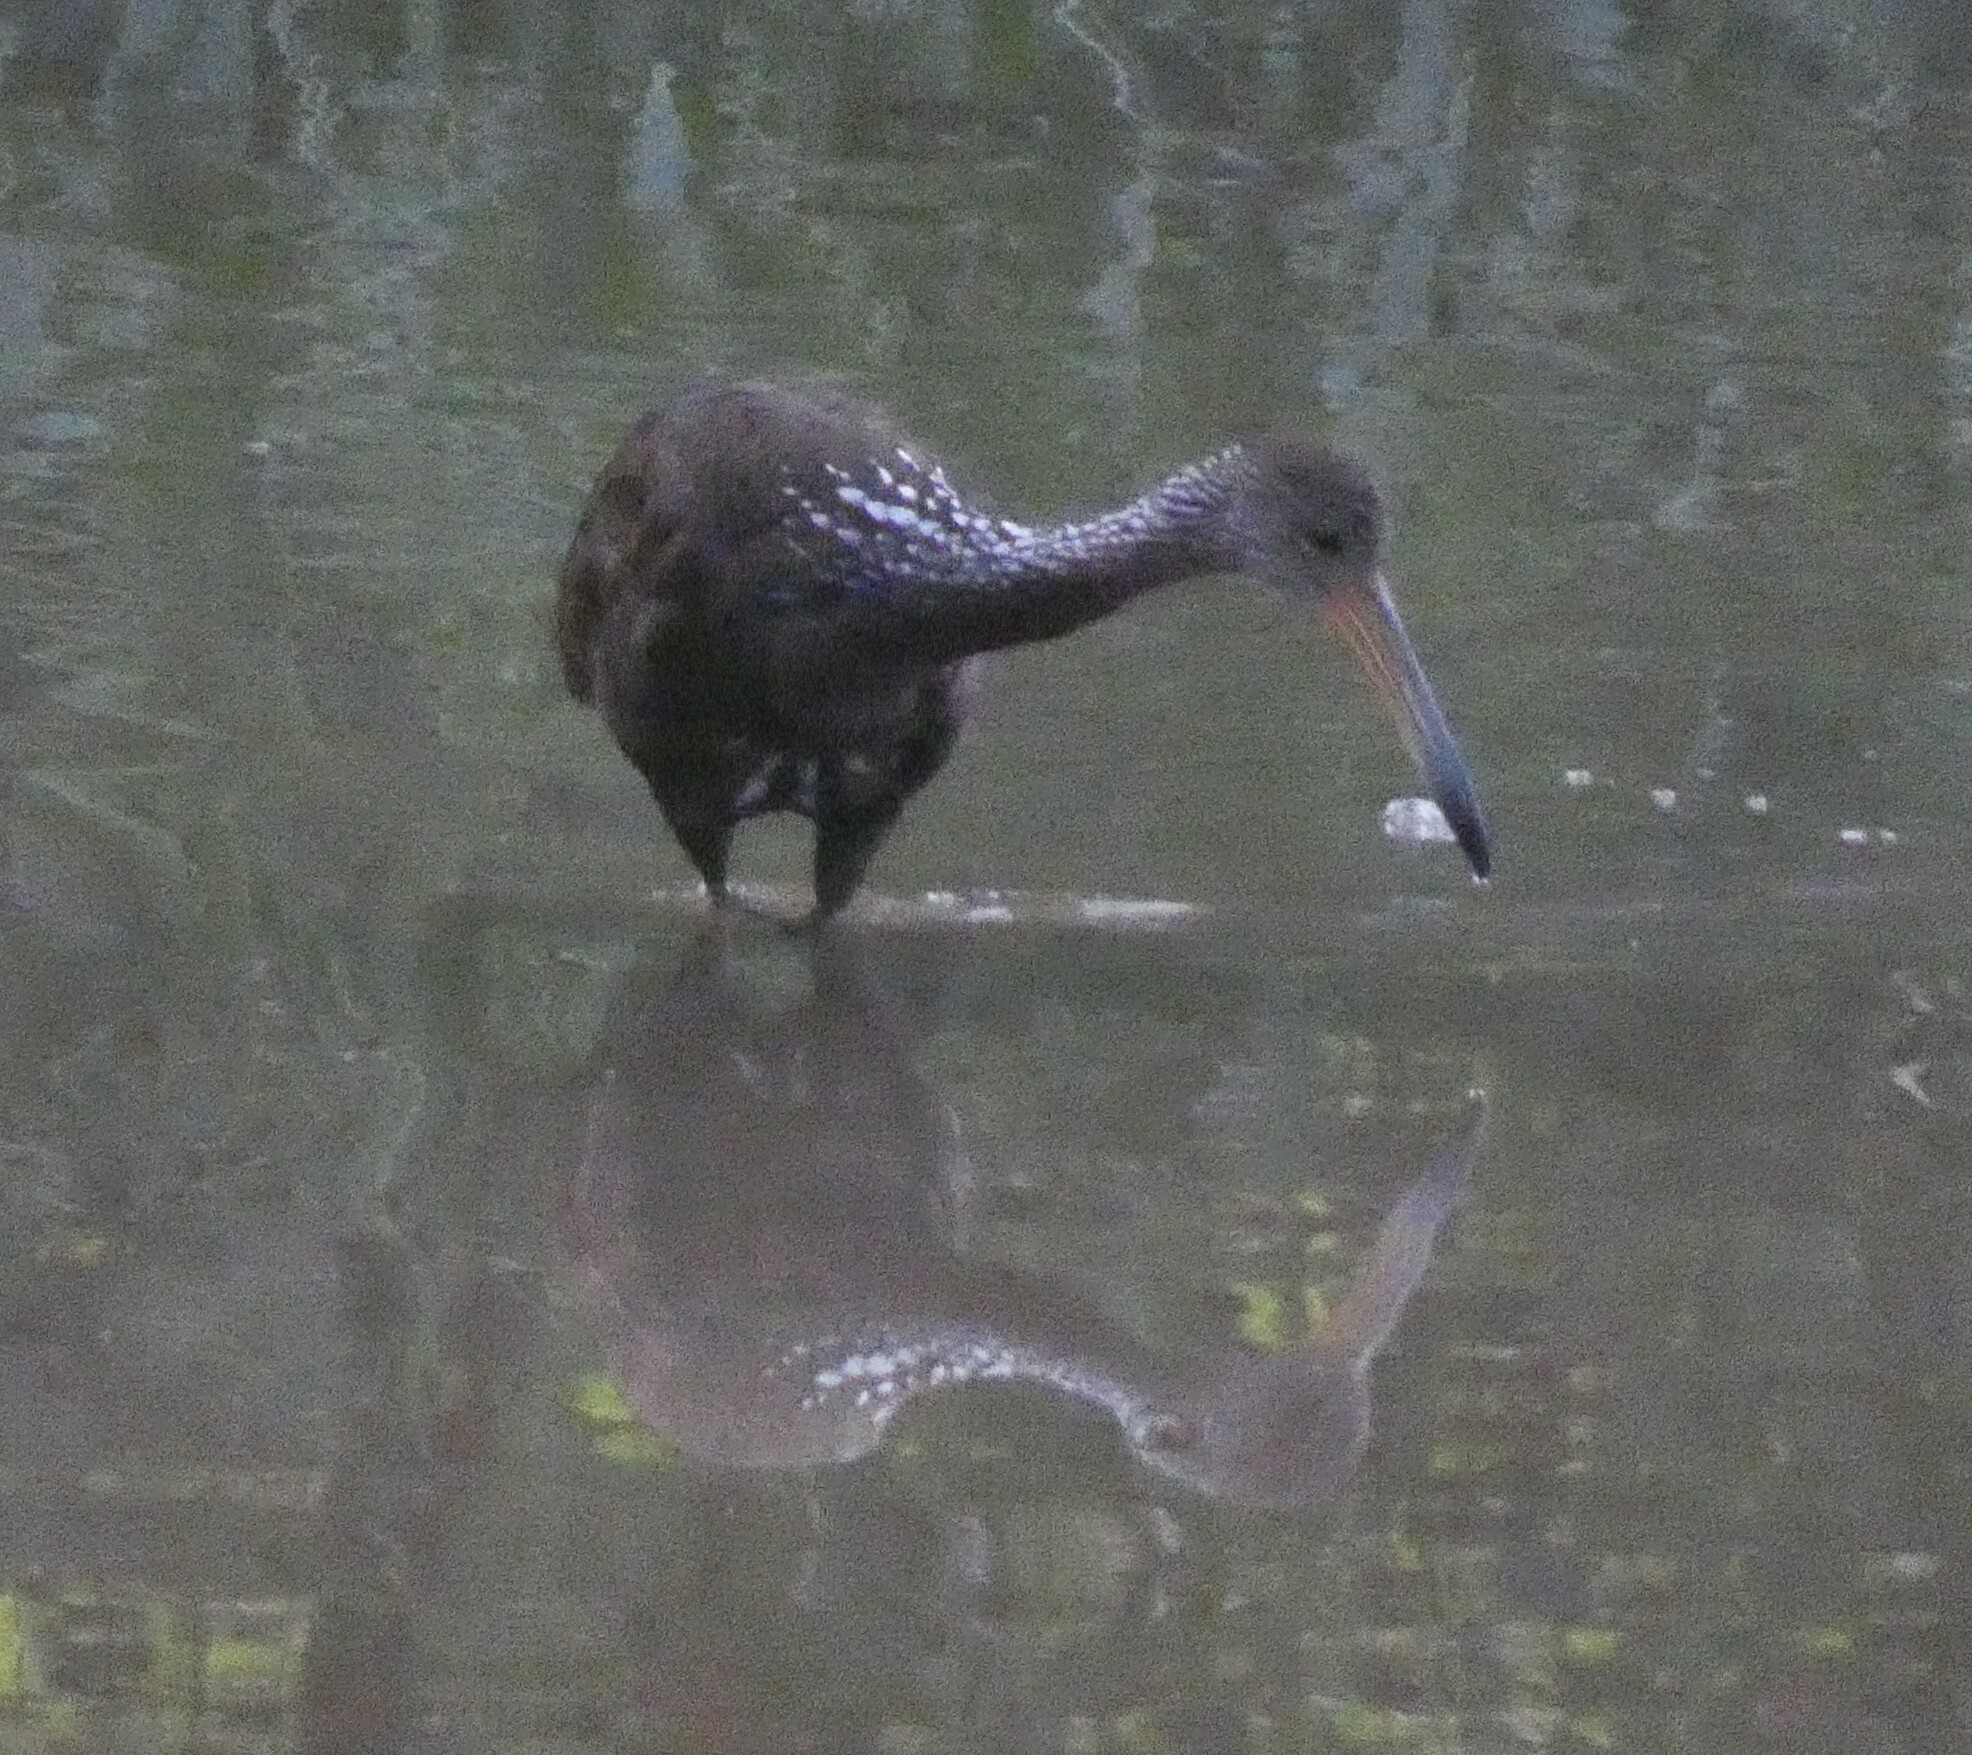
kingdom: Animalia
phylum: Chordata
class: Aves
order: Gruiformes
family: Aramidae
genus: Aramus
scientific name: Aramus guarauna
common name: Limpkin
